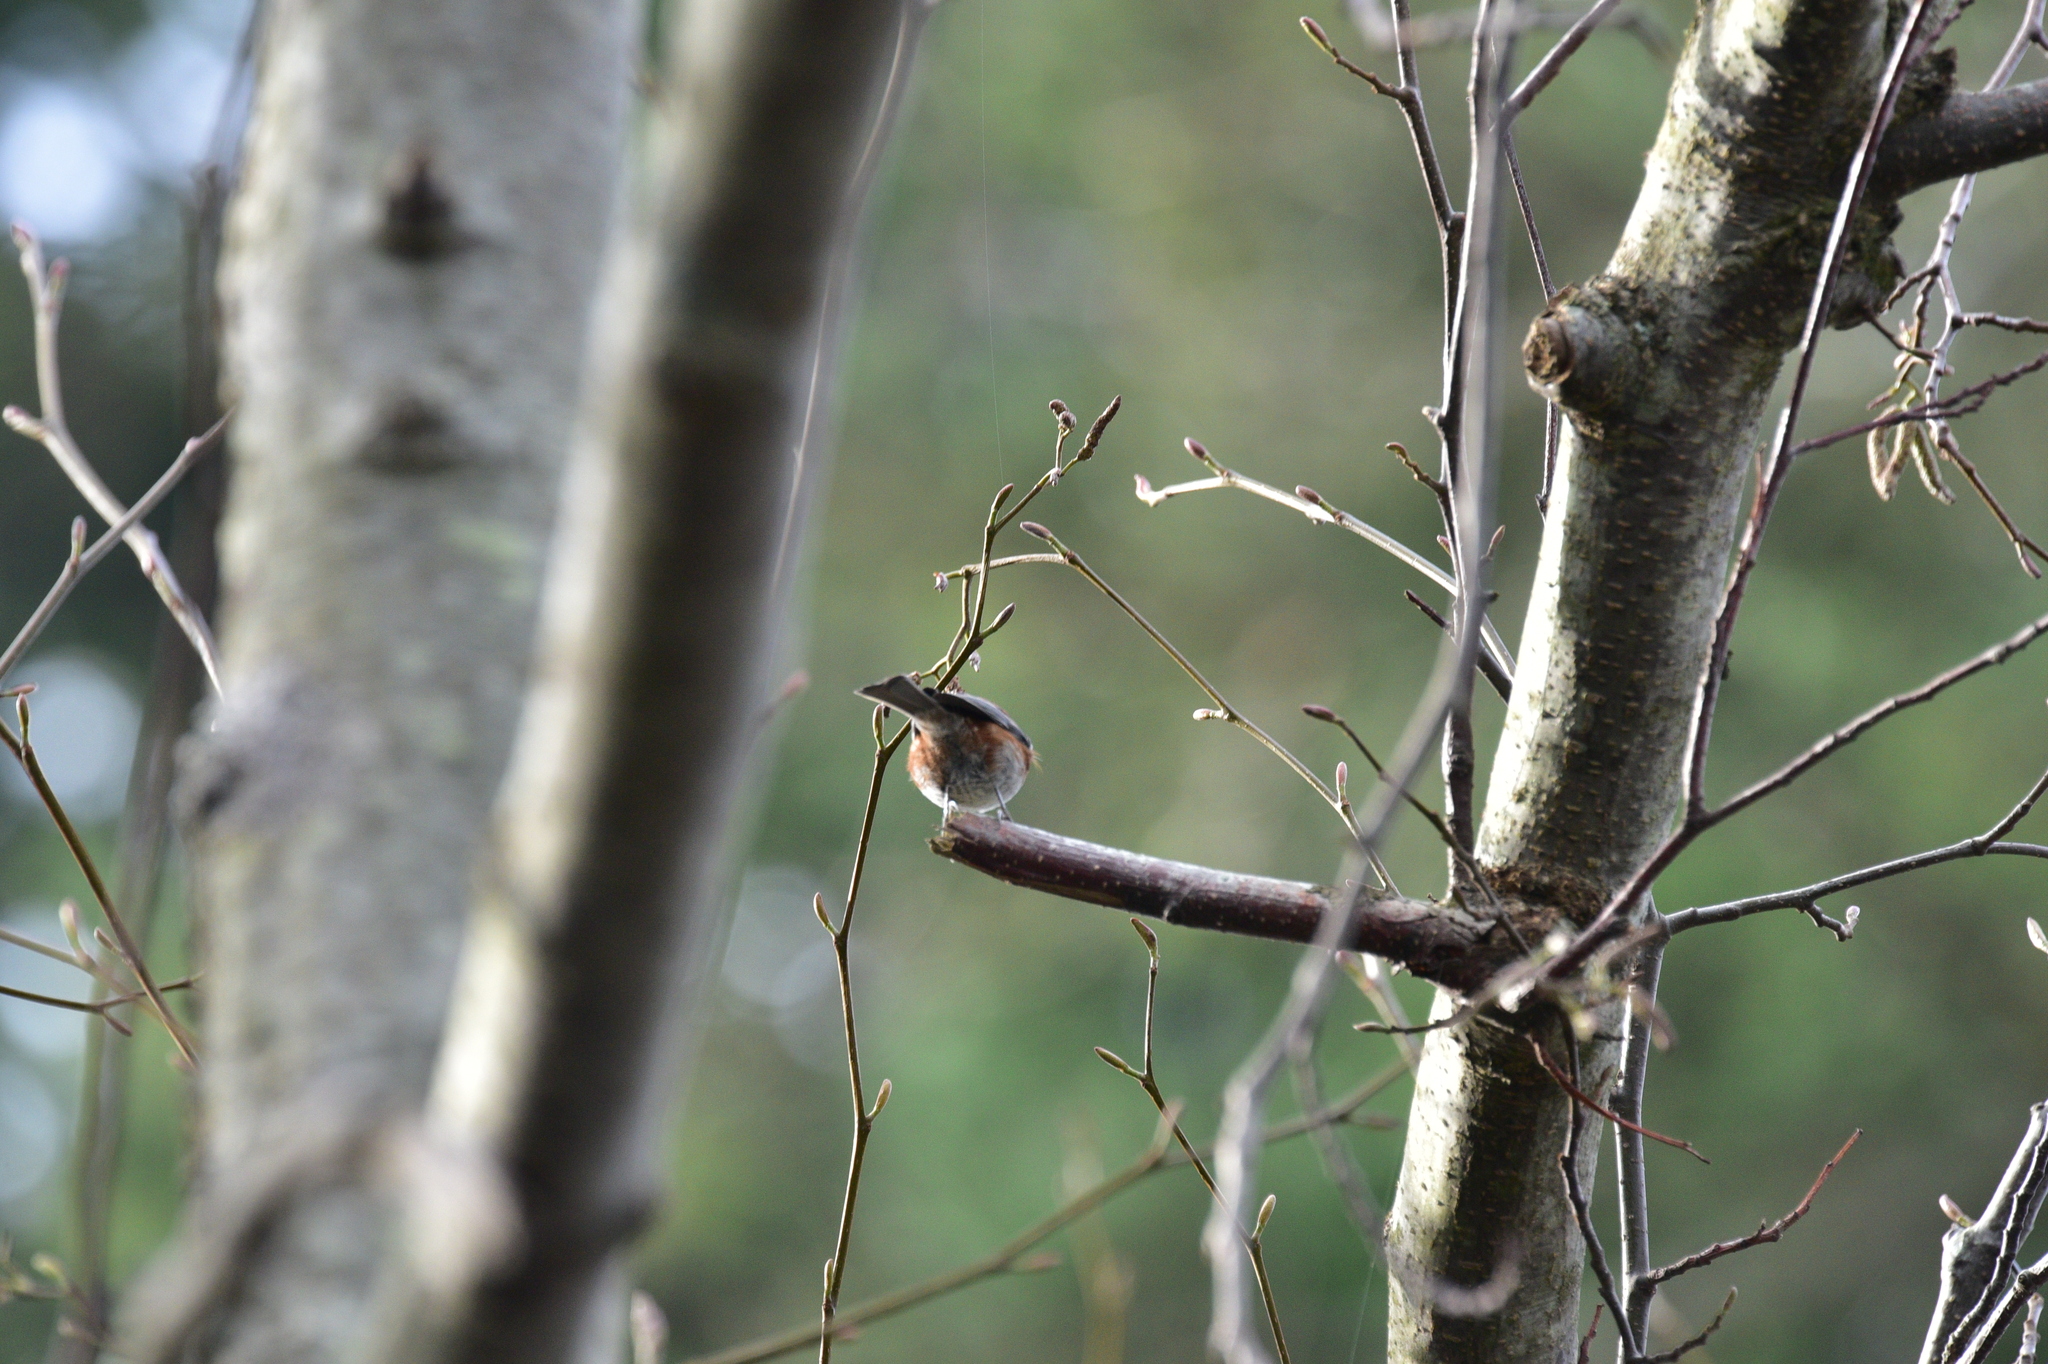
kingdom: Animalia
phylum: Chordata
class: Aves
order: Passeriformes
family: Paridae
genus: Poecile
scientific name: Poecile rufescens
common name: Chestnut-backed chickadee
